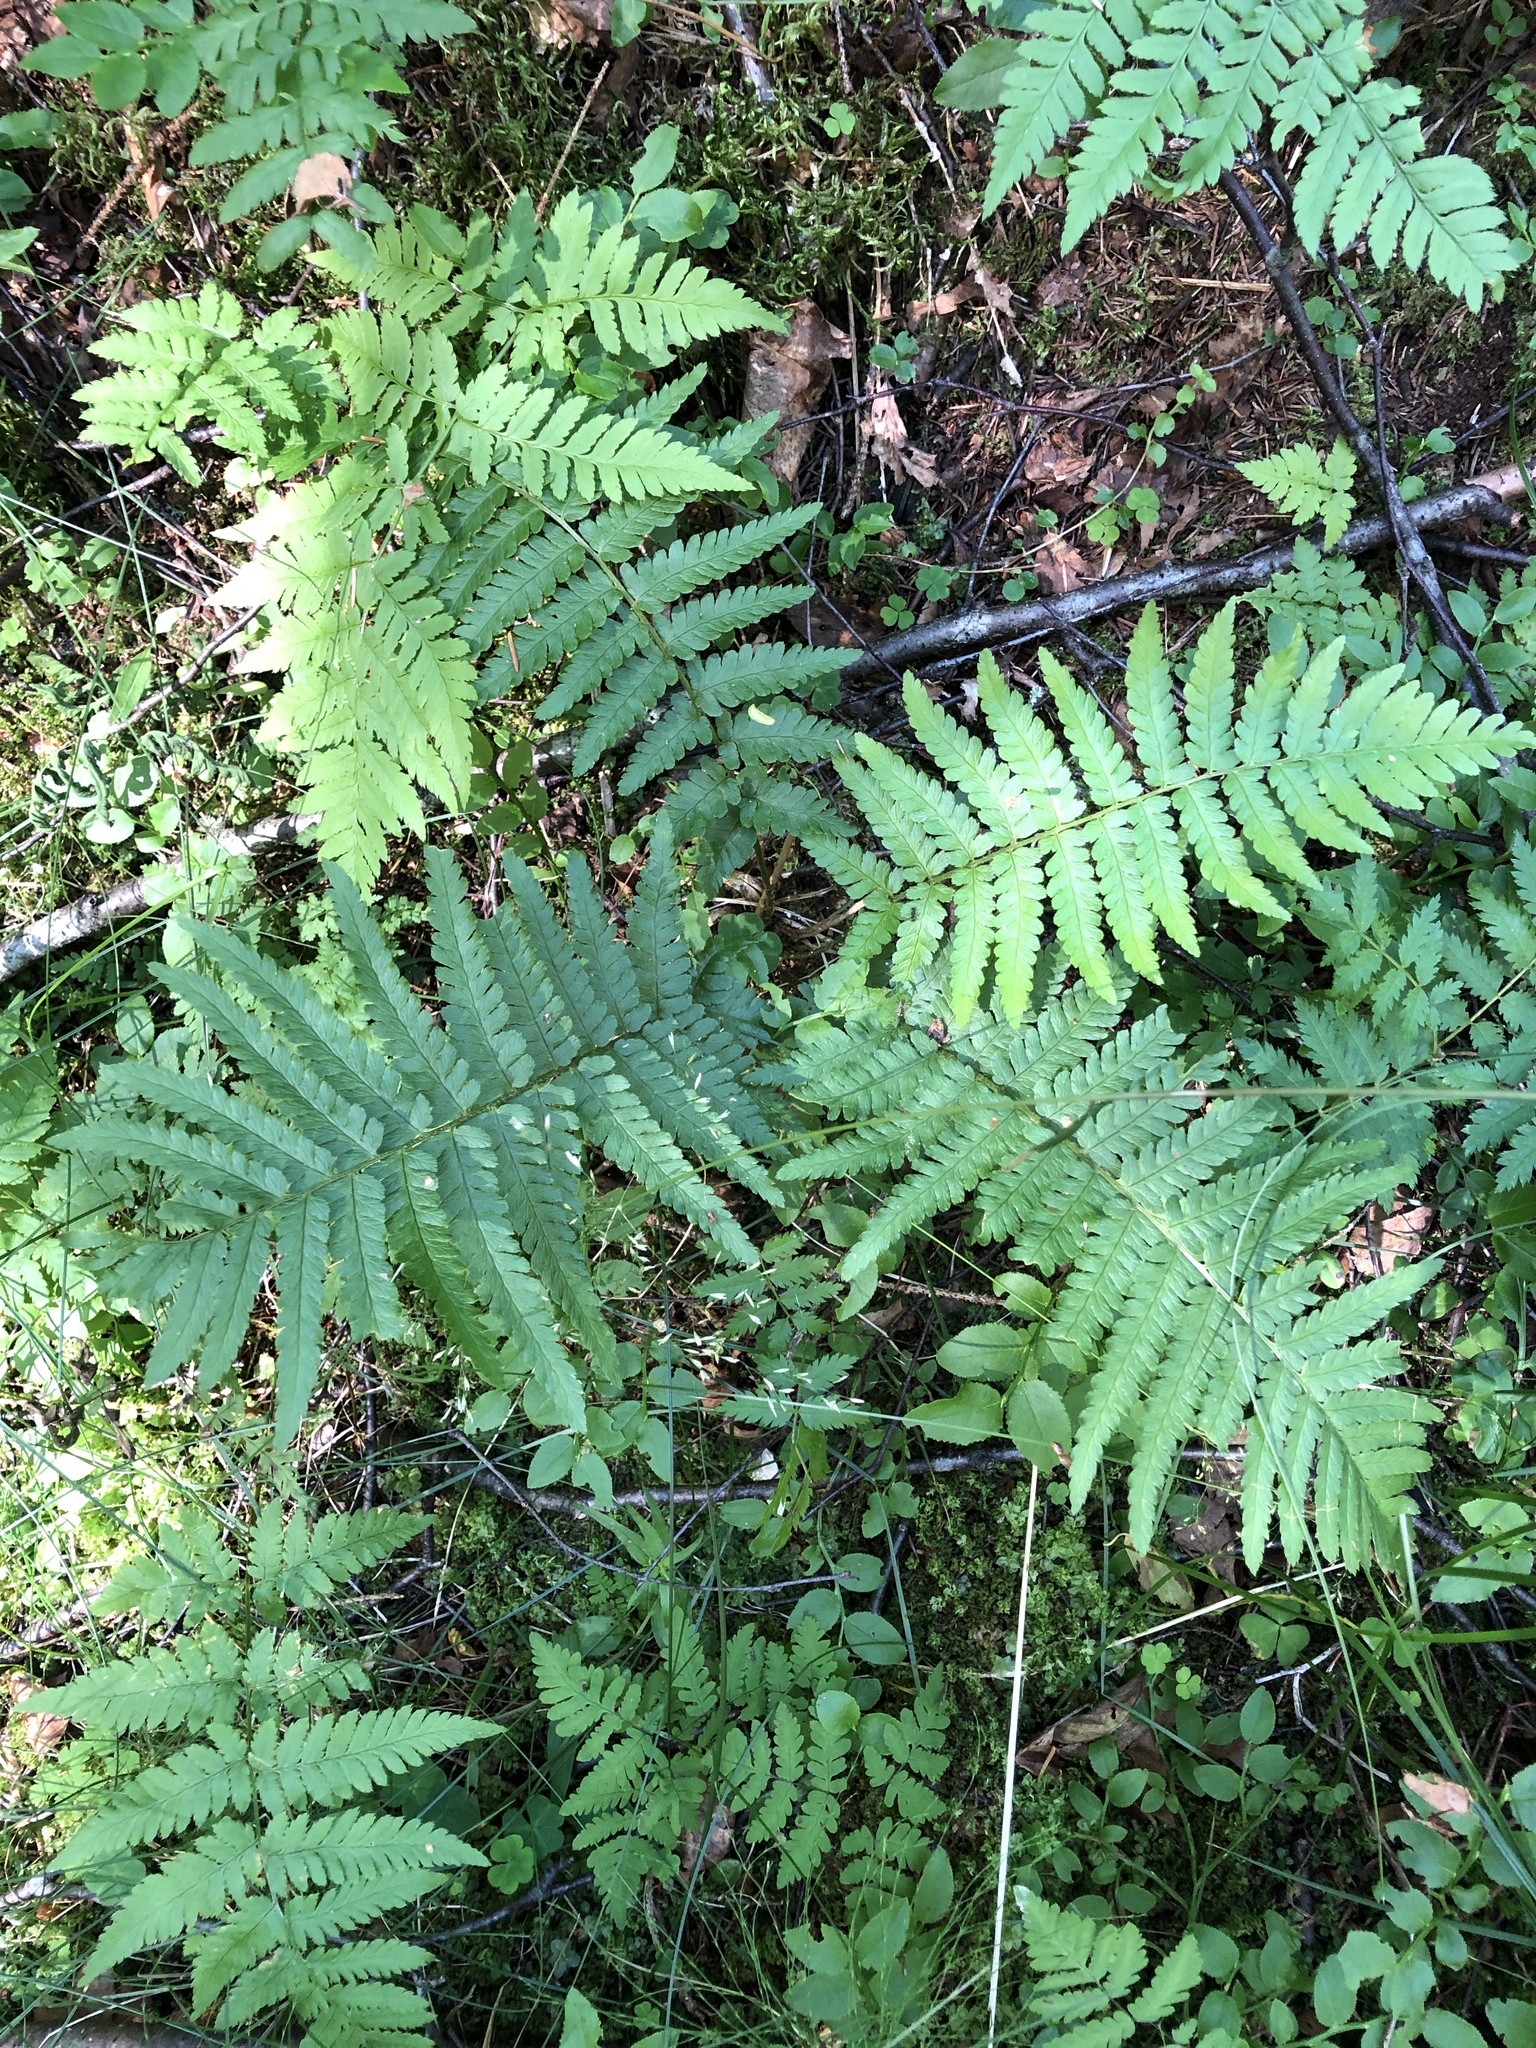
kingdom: Plantae
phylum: Tracheophyta
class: Polypodiopsida
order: Polypodiales
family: Dryopteridaceae
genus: Dryopteris
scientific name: Dryopteris filix-mas
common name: Male fern
